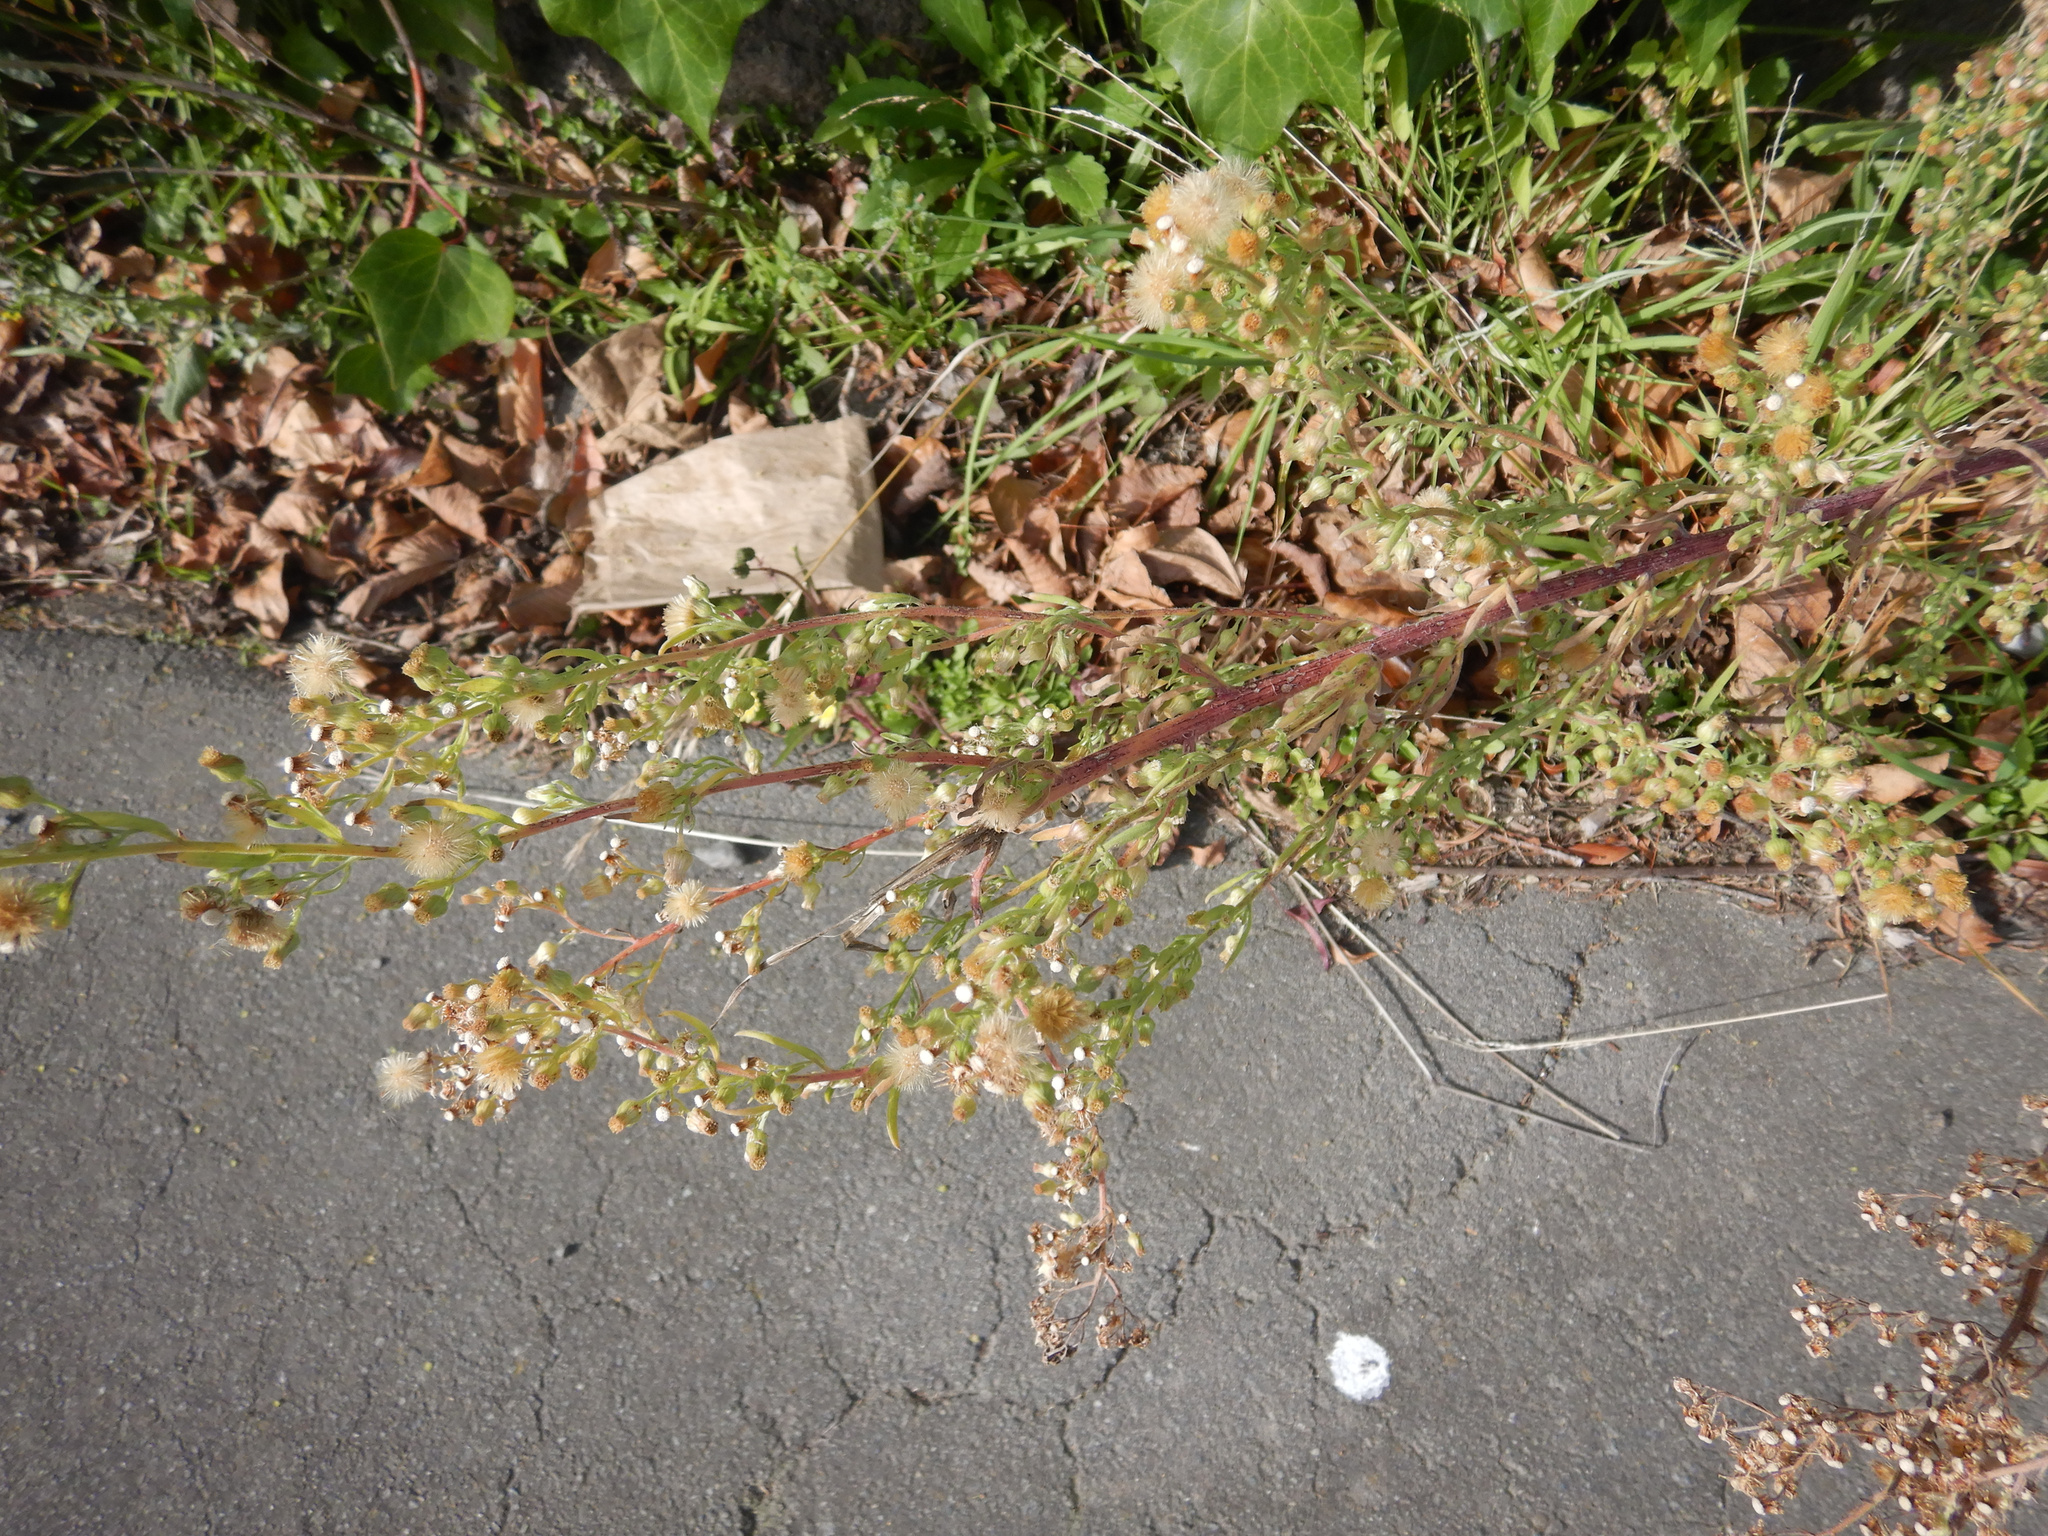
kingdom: Plantae
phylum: Tracheophyta
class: Magnoliopsida
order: Asterales
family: Asteraceae
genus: Erigeron
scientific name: Erigeron sumatrensis
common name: Daisy
